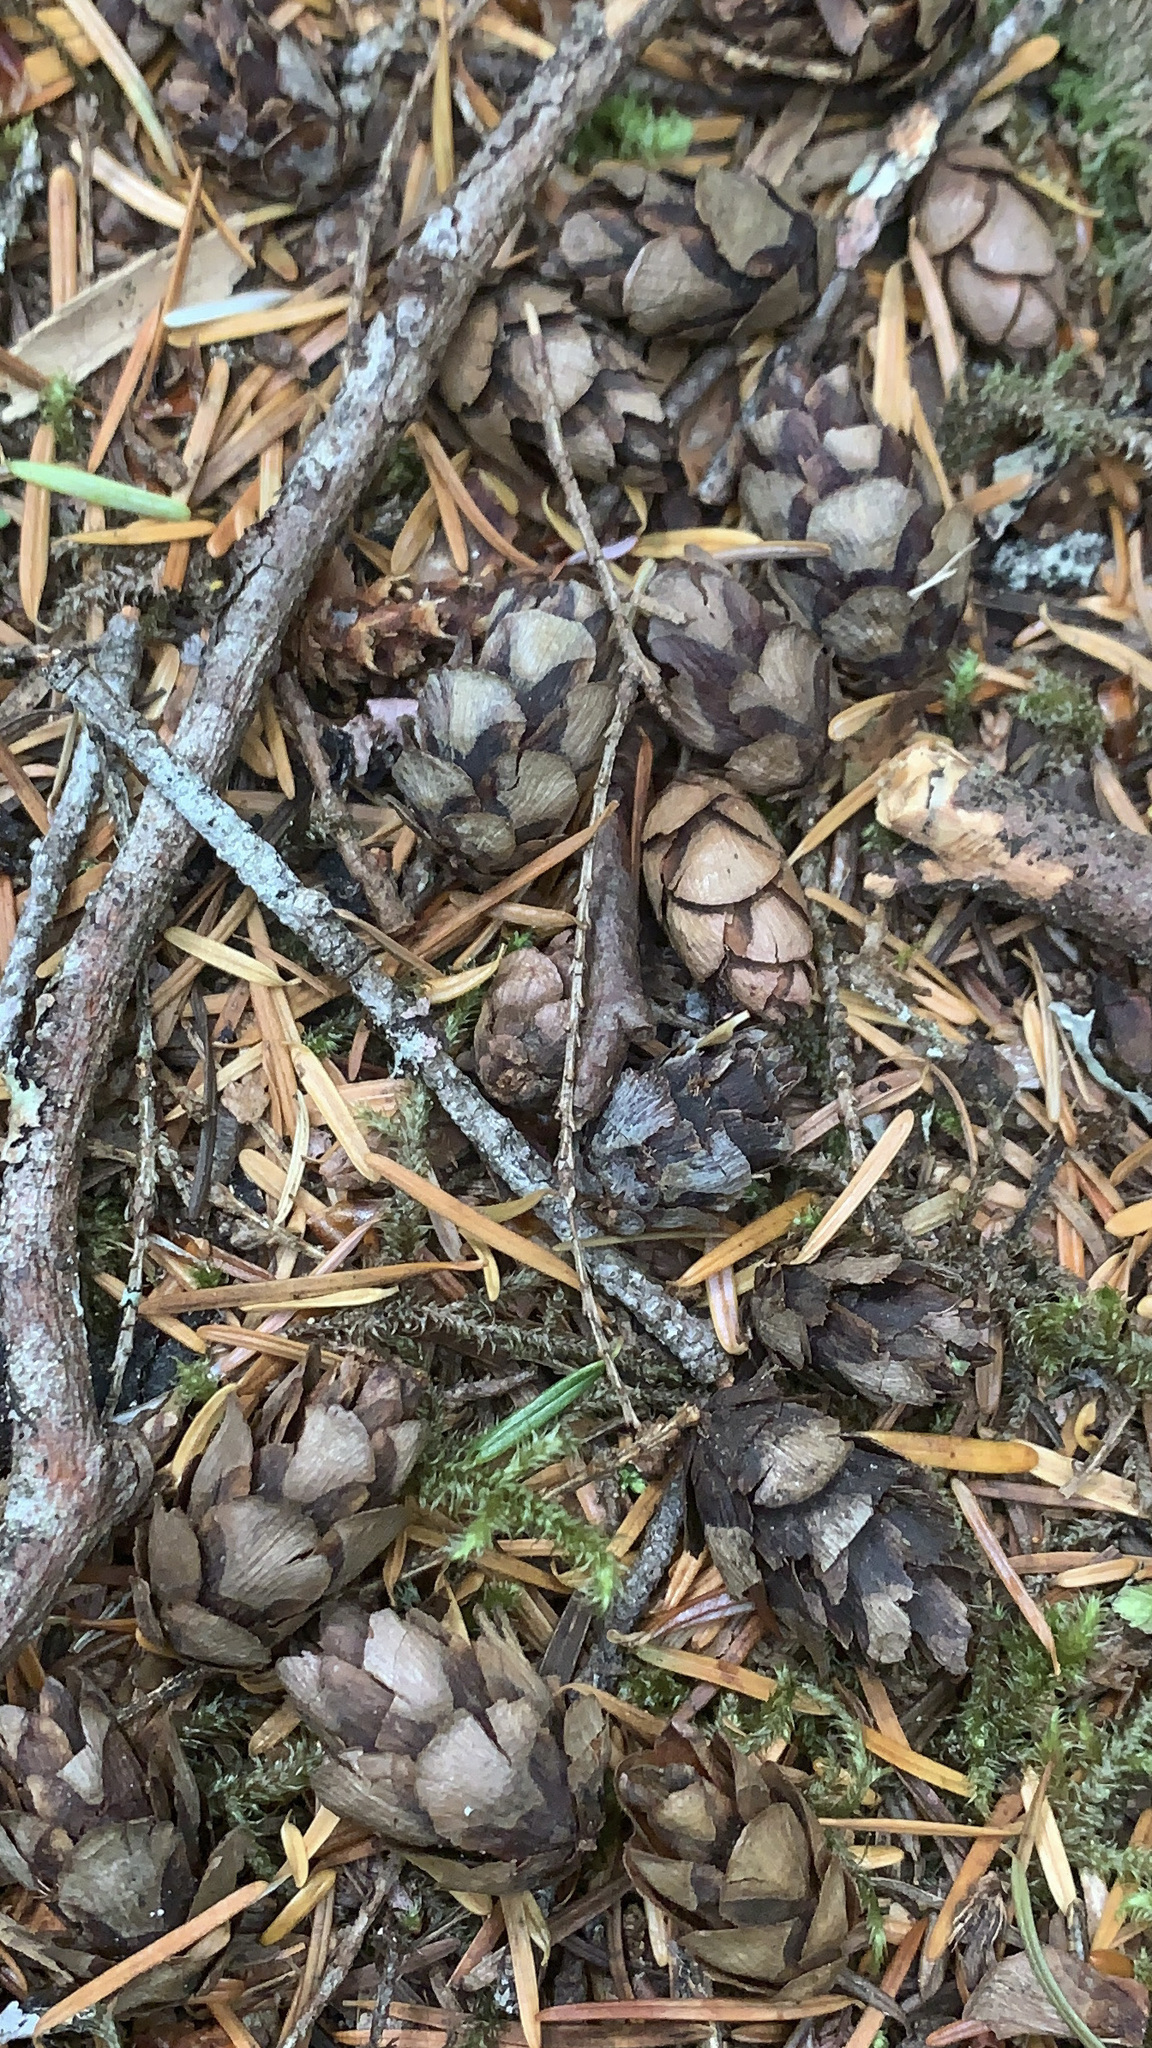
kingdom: Plantae
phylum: Tracheophyta
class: Pinopsida
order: Pinales
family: Pinaceae
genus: Tsuga
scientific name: Tsuga heterophylla
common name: Western hemlock
